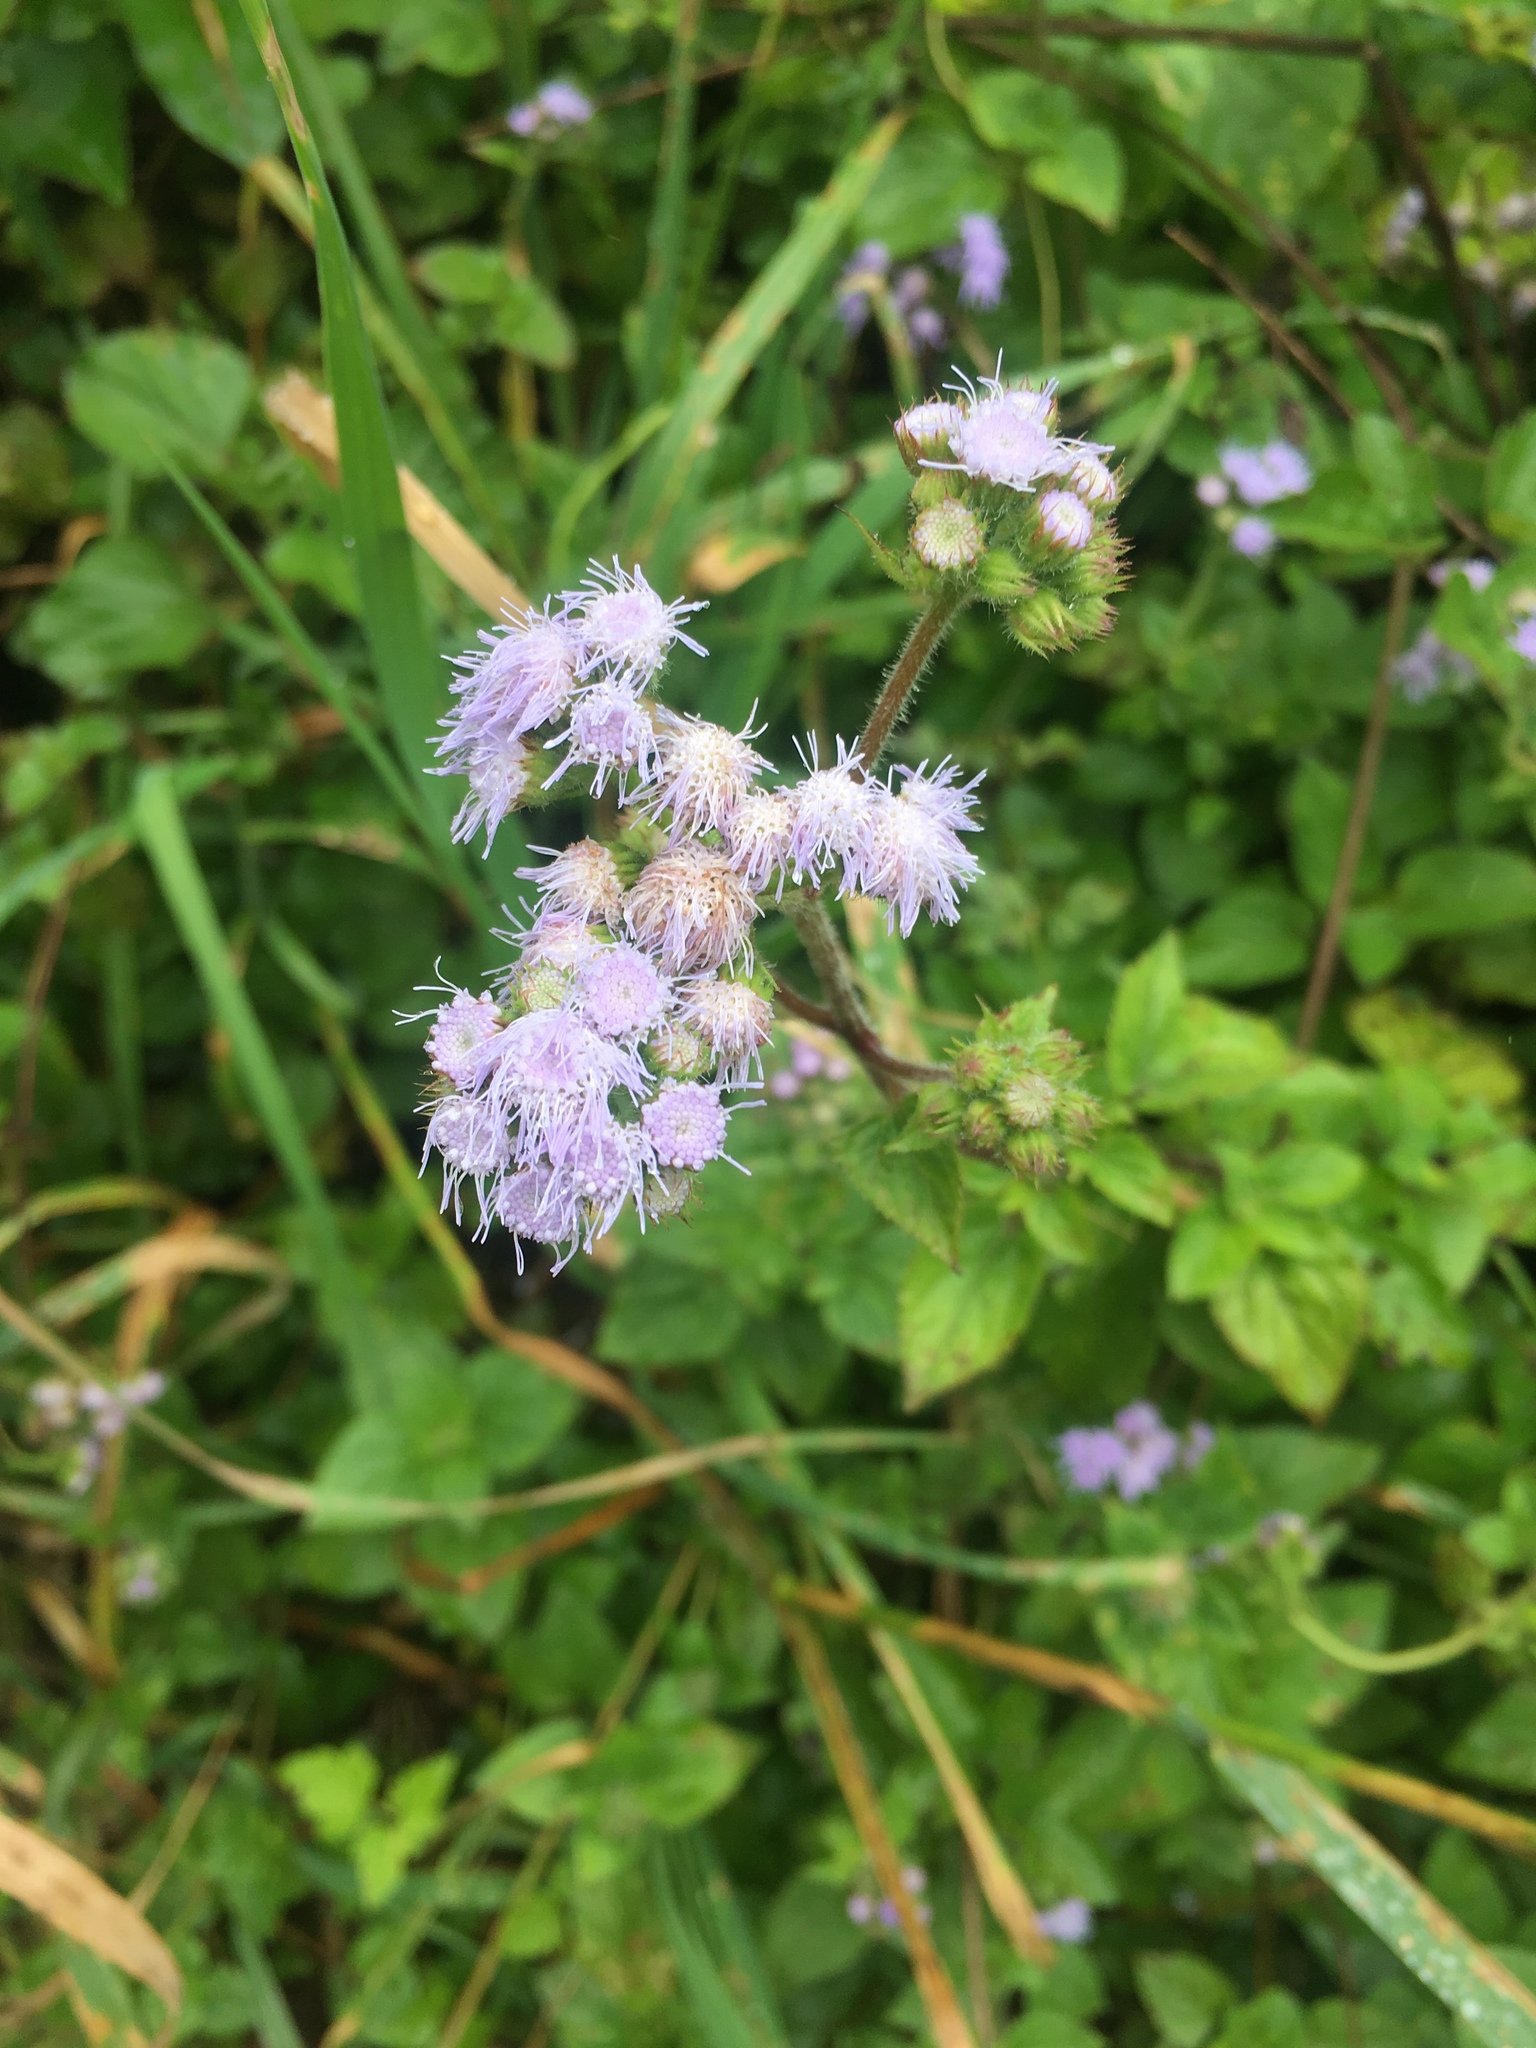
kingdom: Plantae
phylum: Tracheophyta
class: Magnoliopsida
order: Asterales
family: Asteraceae
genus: Ageratum
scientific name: Ageratum houstonianum
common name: Bluemink
